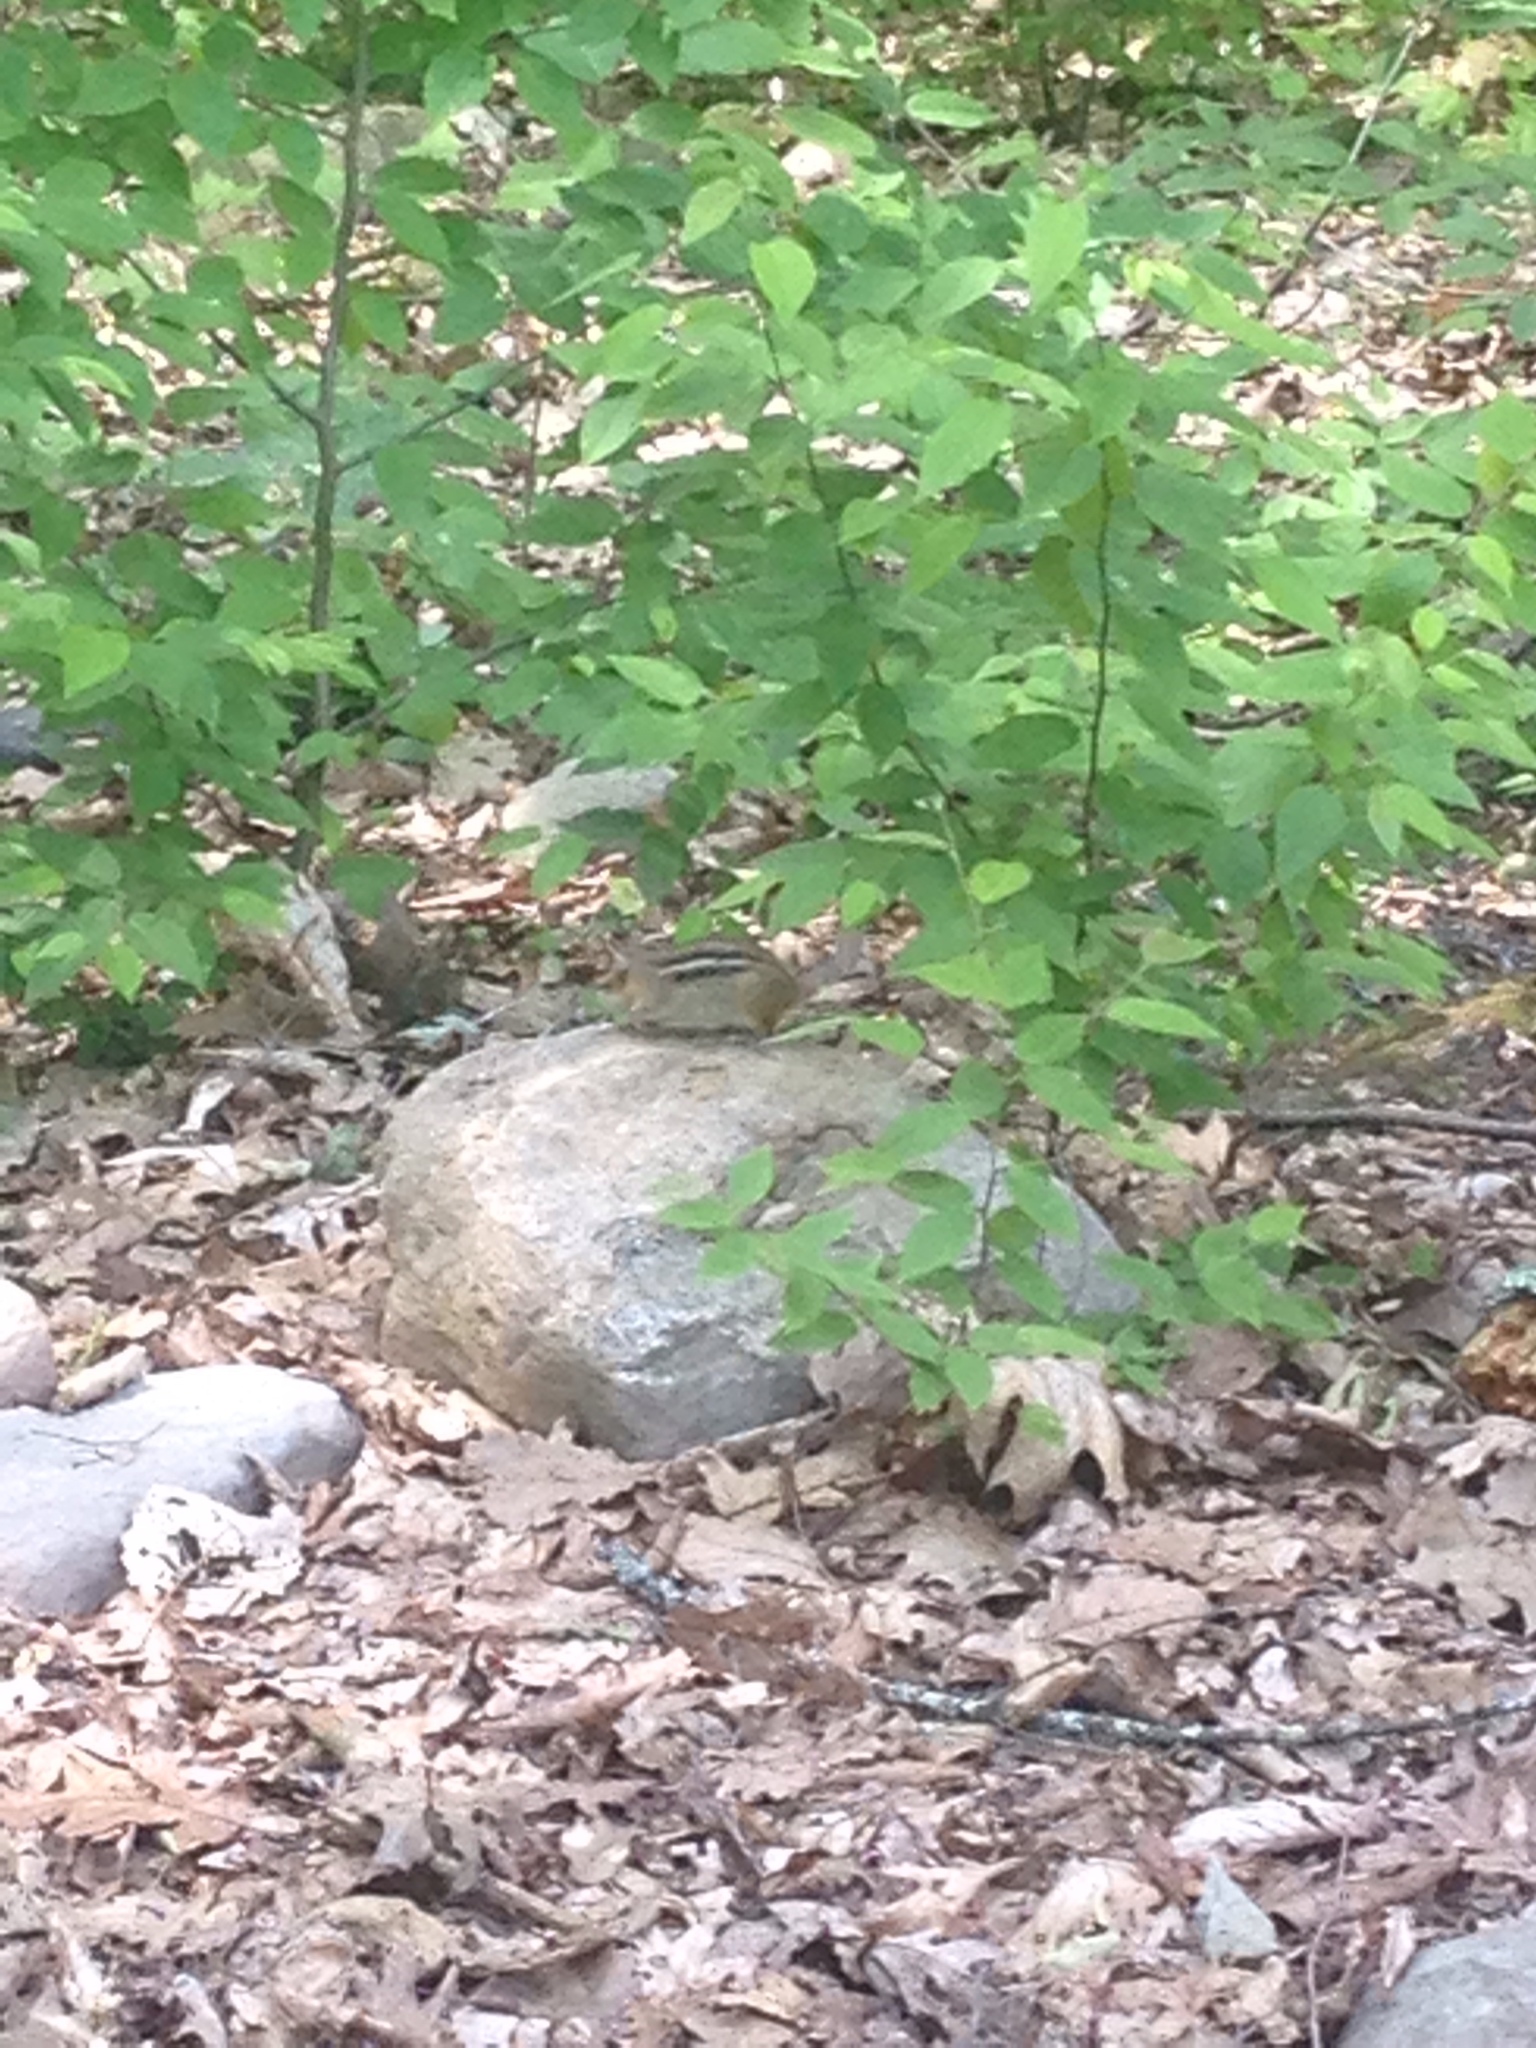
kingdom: Animalia
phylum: Chordata
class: Mammalia
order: Rodentia
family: Sciuridae
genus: Tamias
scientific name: Tamias striatus
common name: Eastern chipmunk
